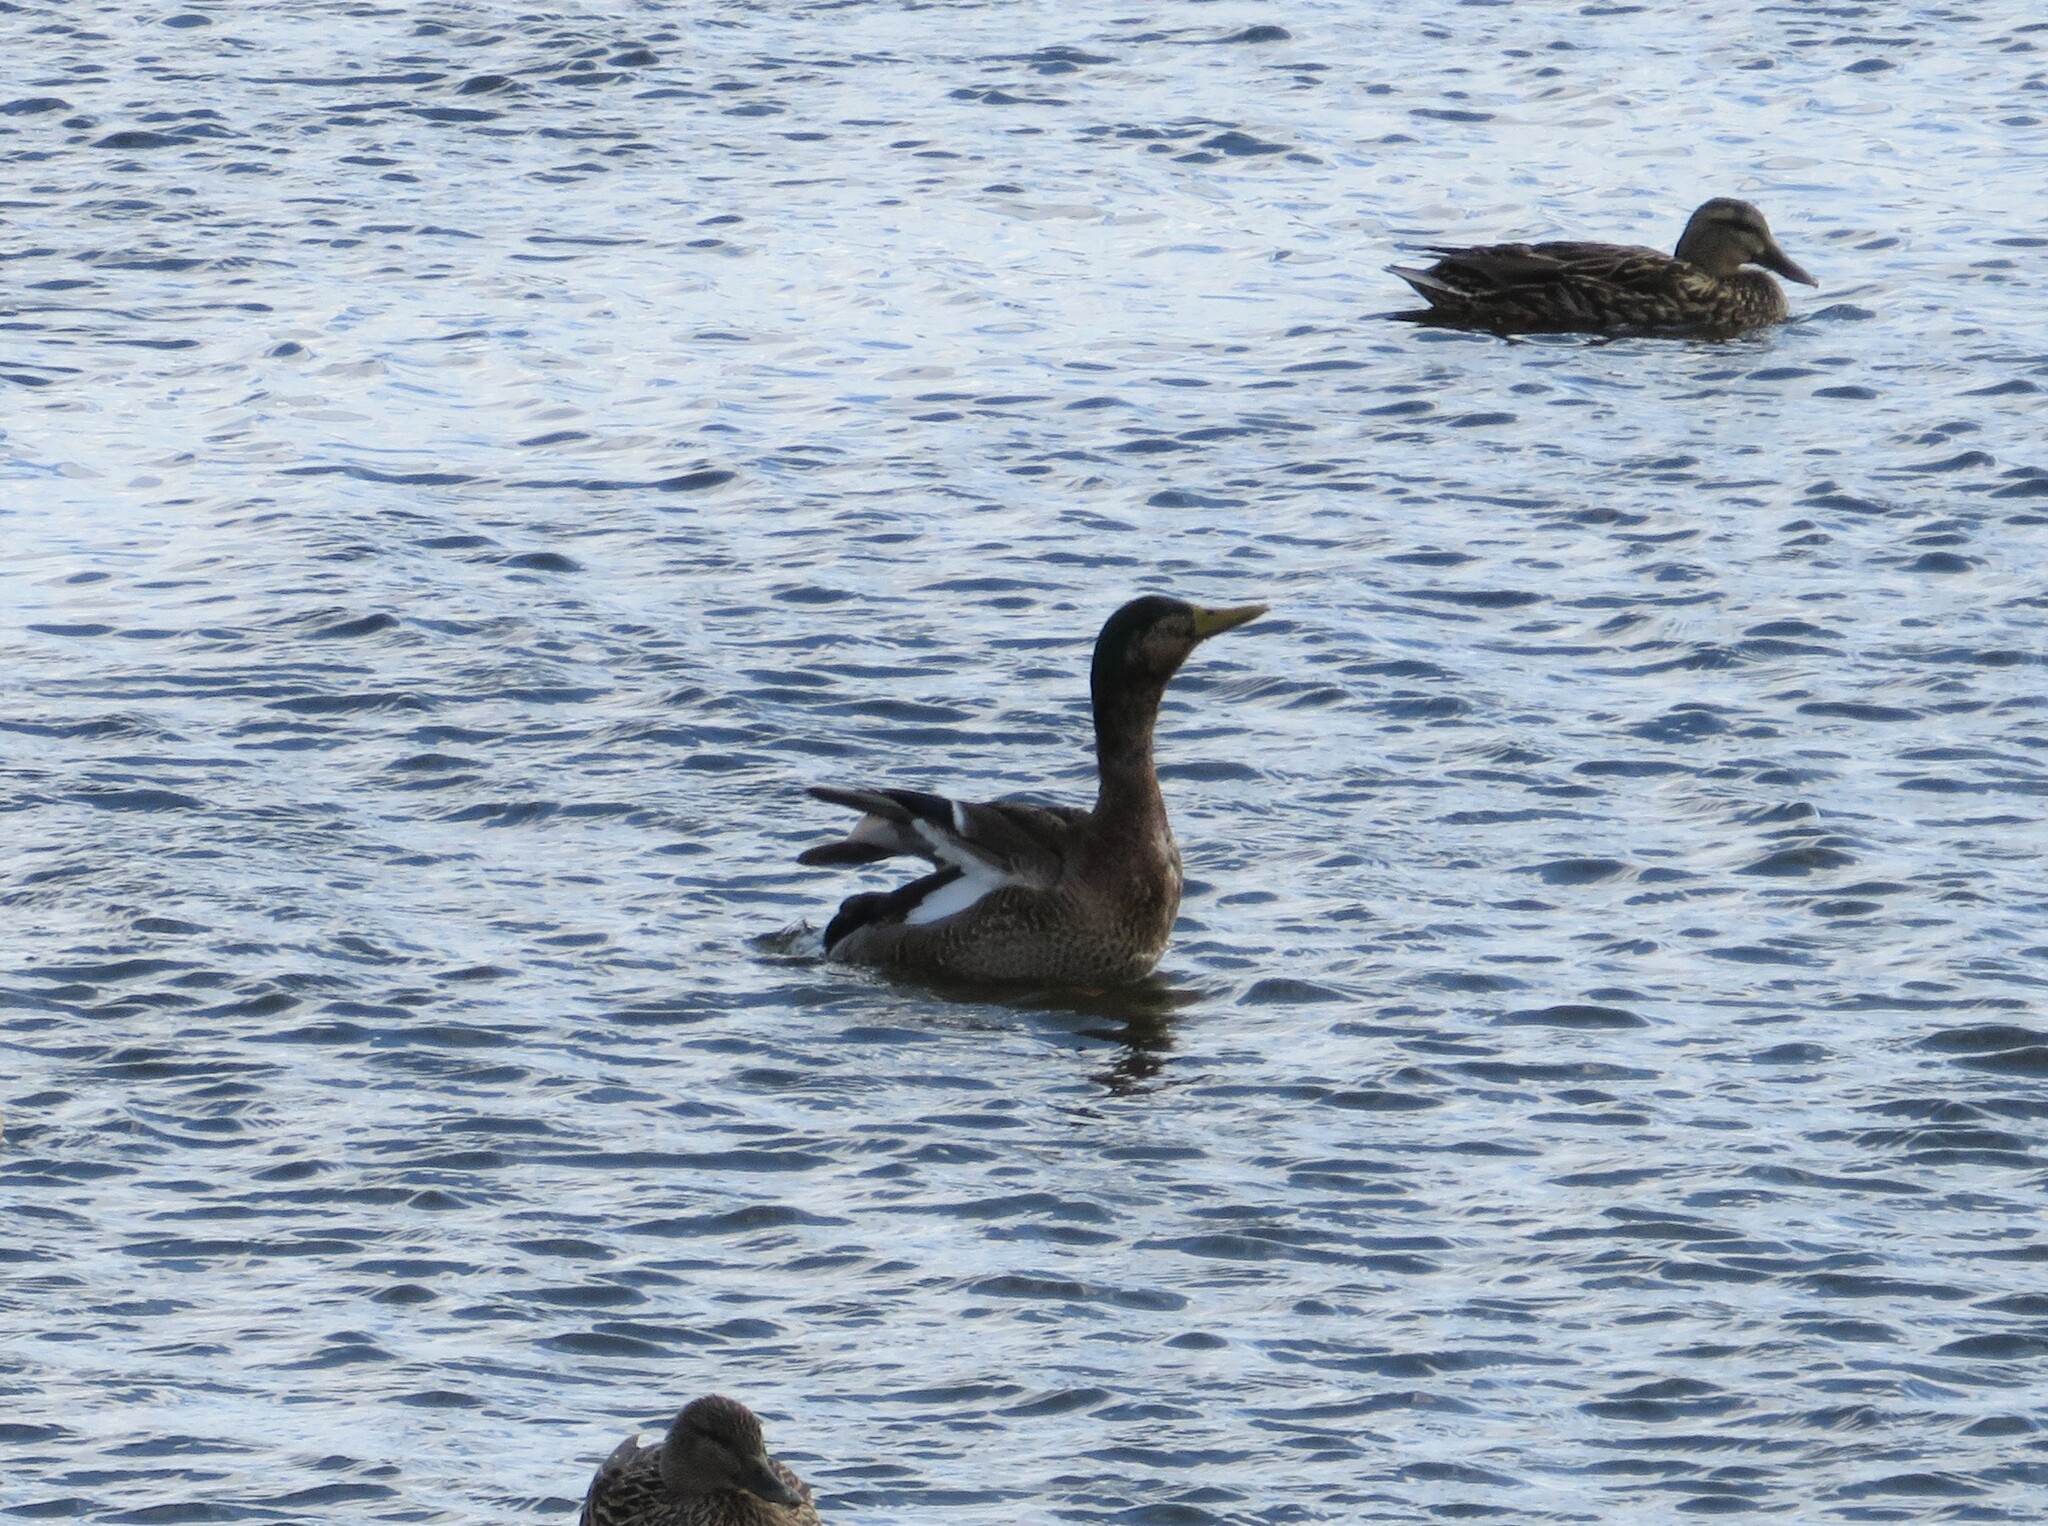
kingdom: Animalia
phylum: Chordata
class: Aves
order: Anseriformes
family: Anatidae
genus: Anas
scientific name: Anas
